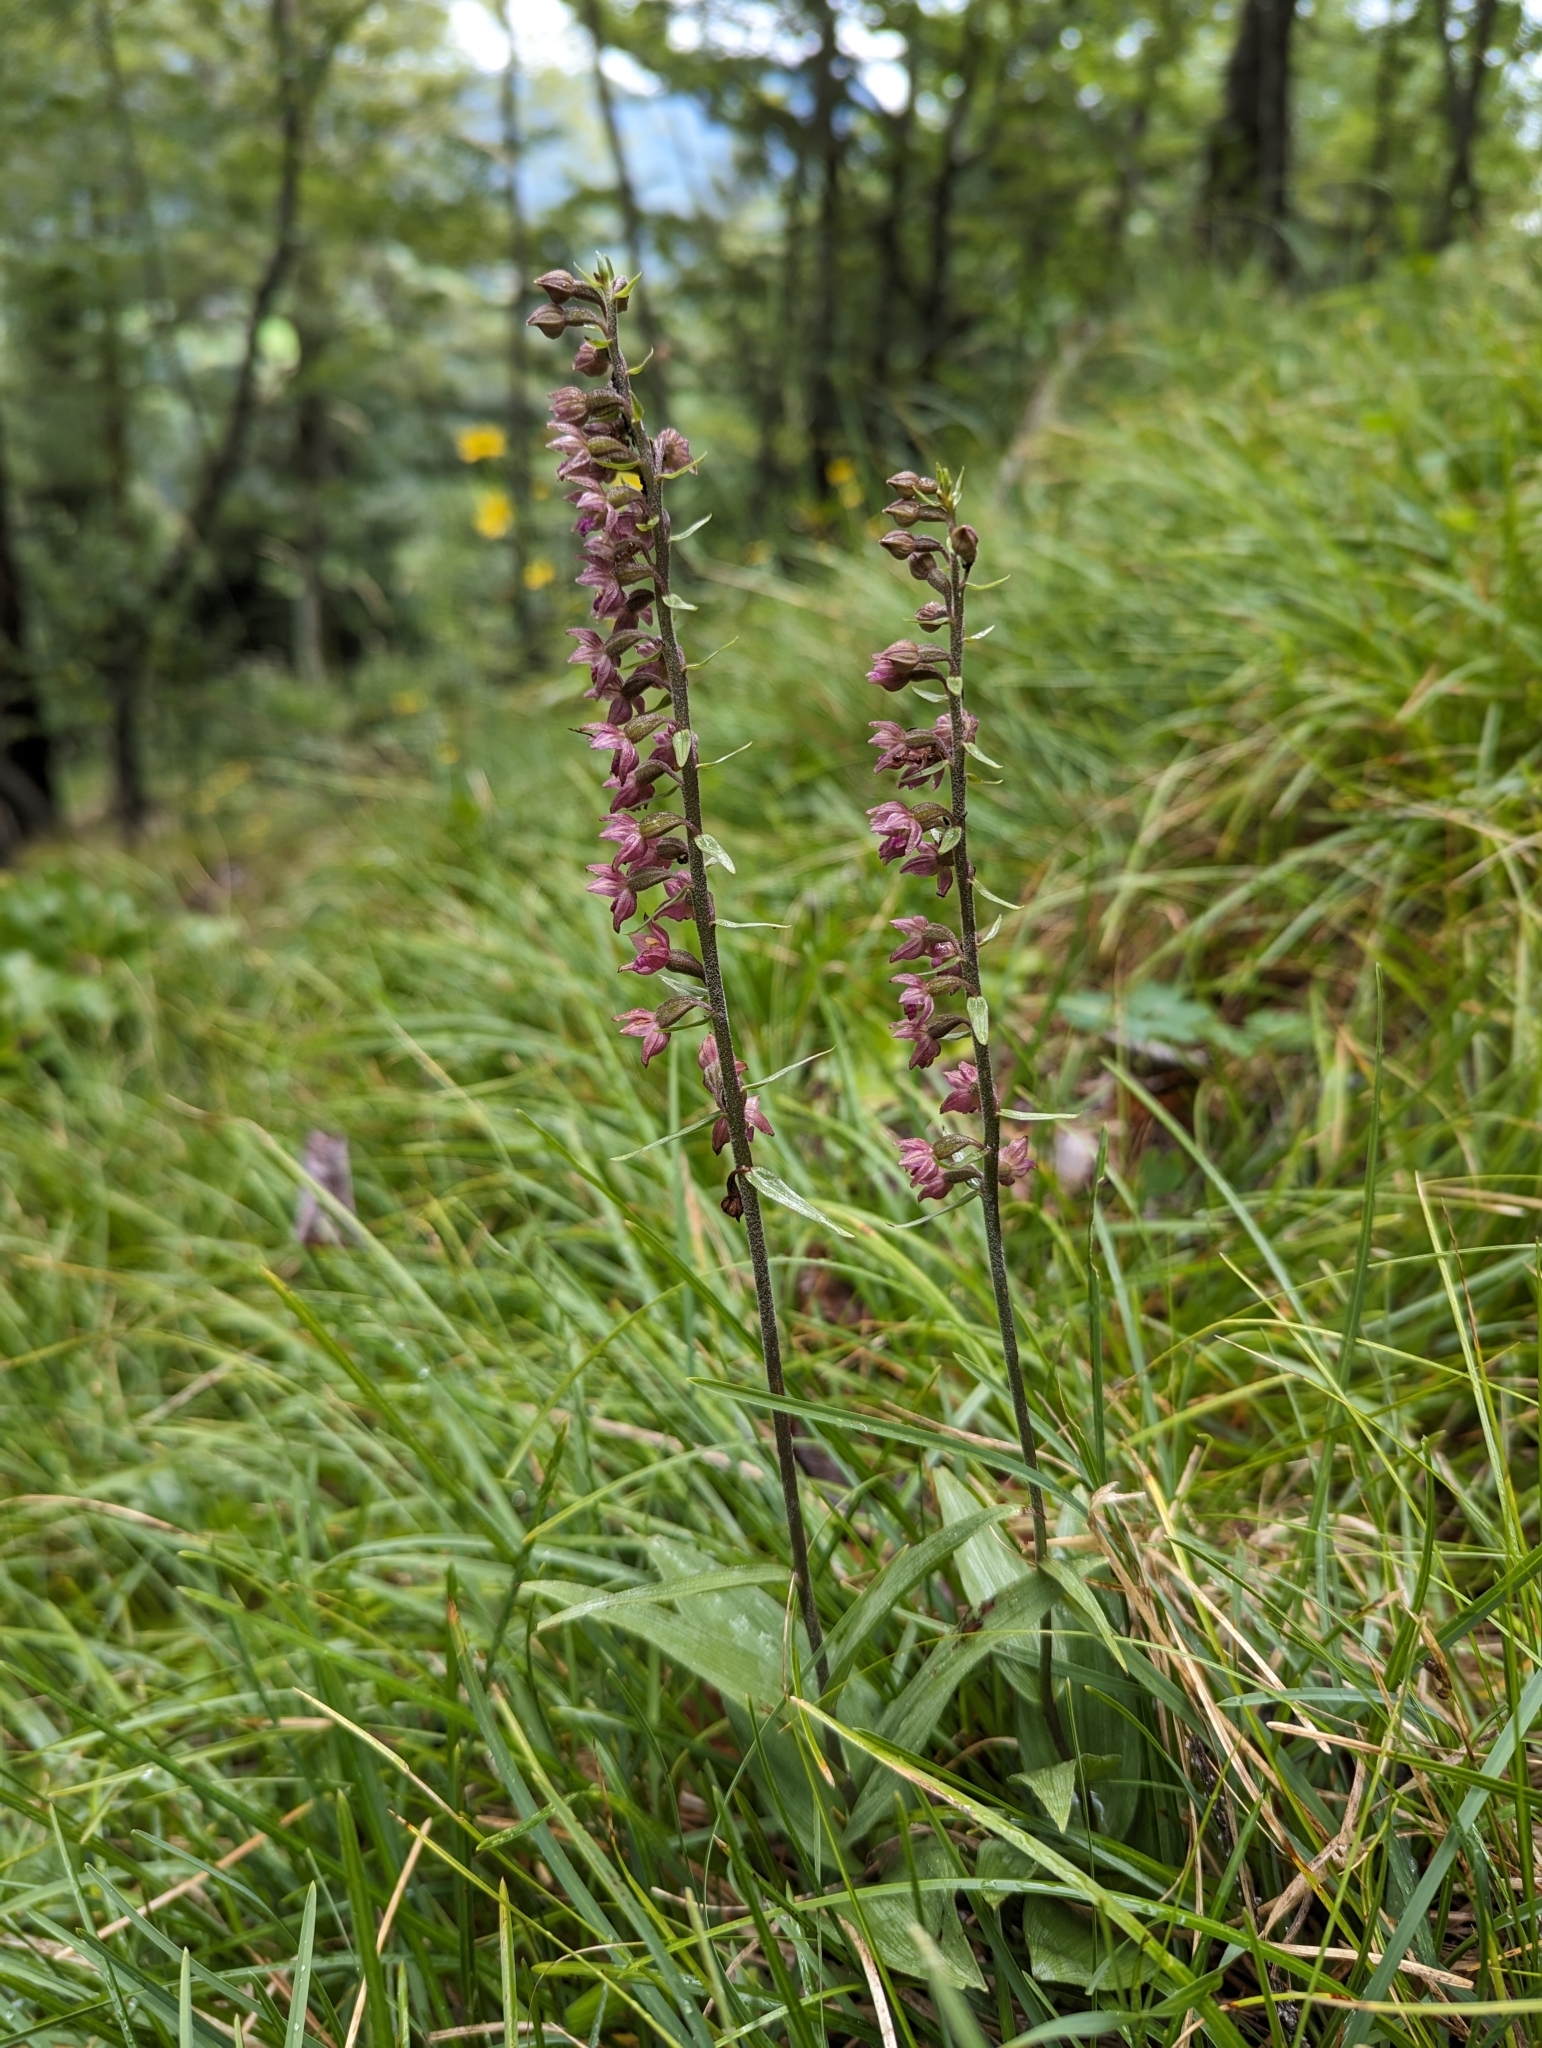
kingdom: Plantae
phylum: Tracheophyta
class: Liliopsida
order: Asparagales
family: Orchidaceae
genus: Epipactis
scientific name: Epipactis atrorubens
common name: Dark-red helleborine
